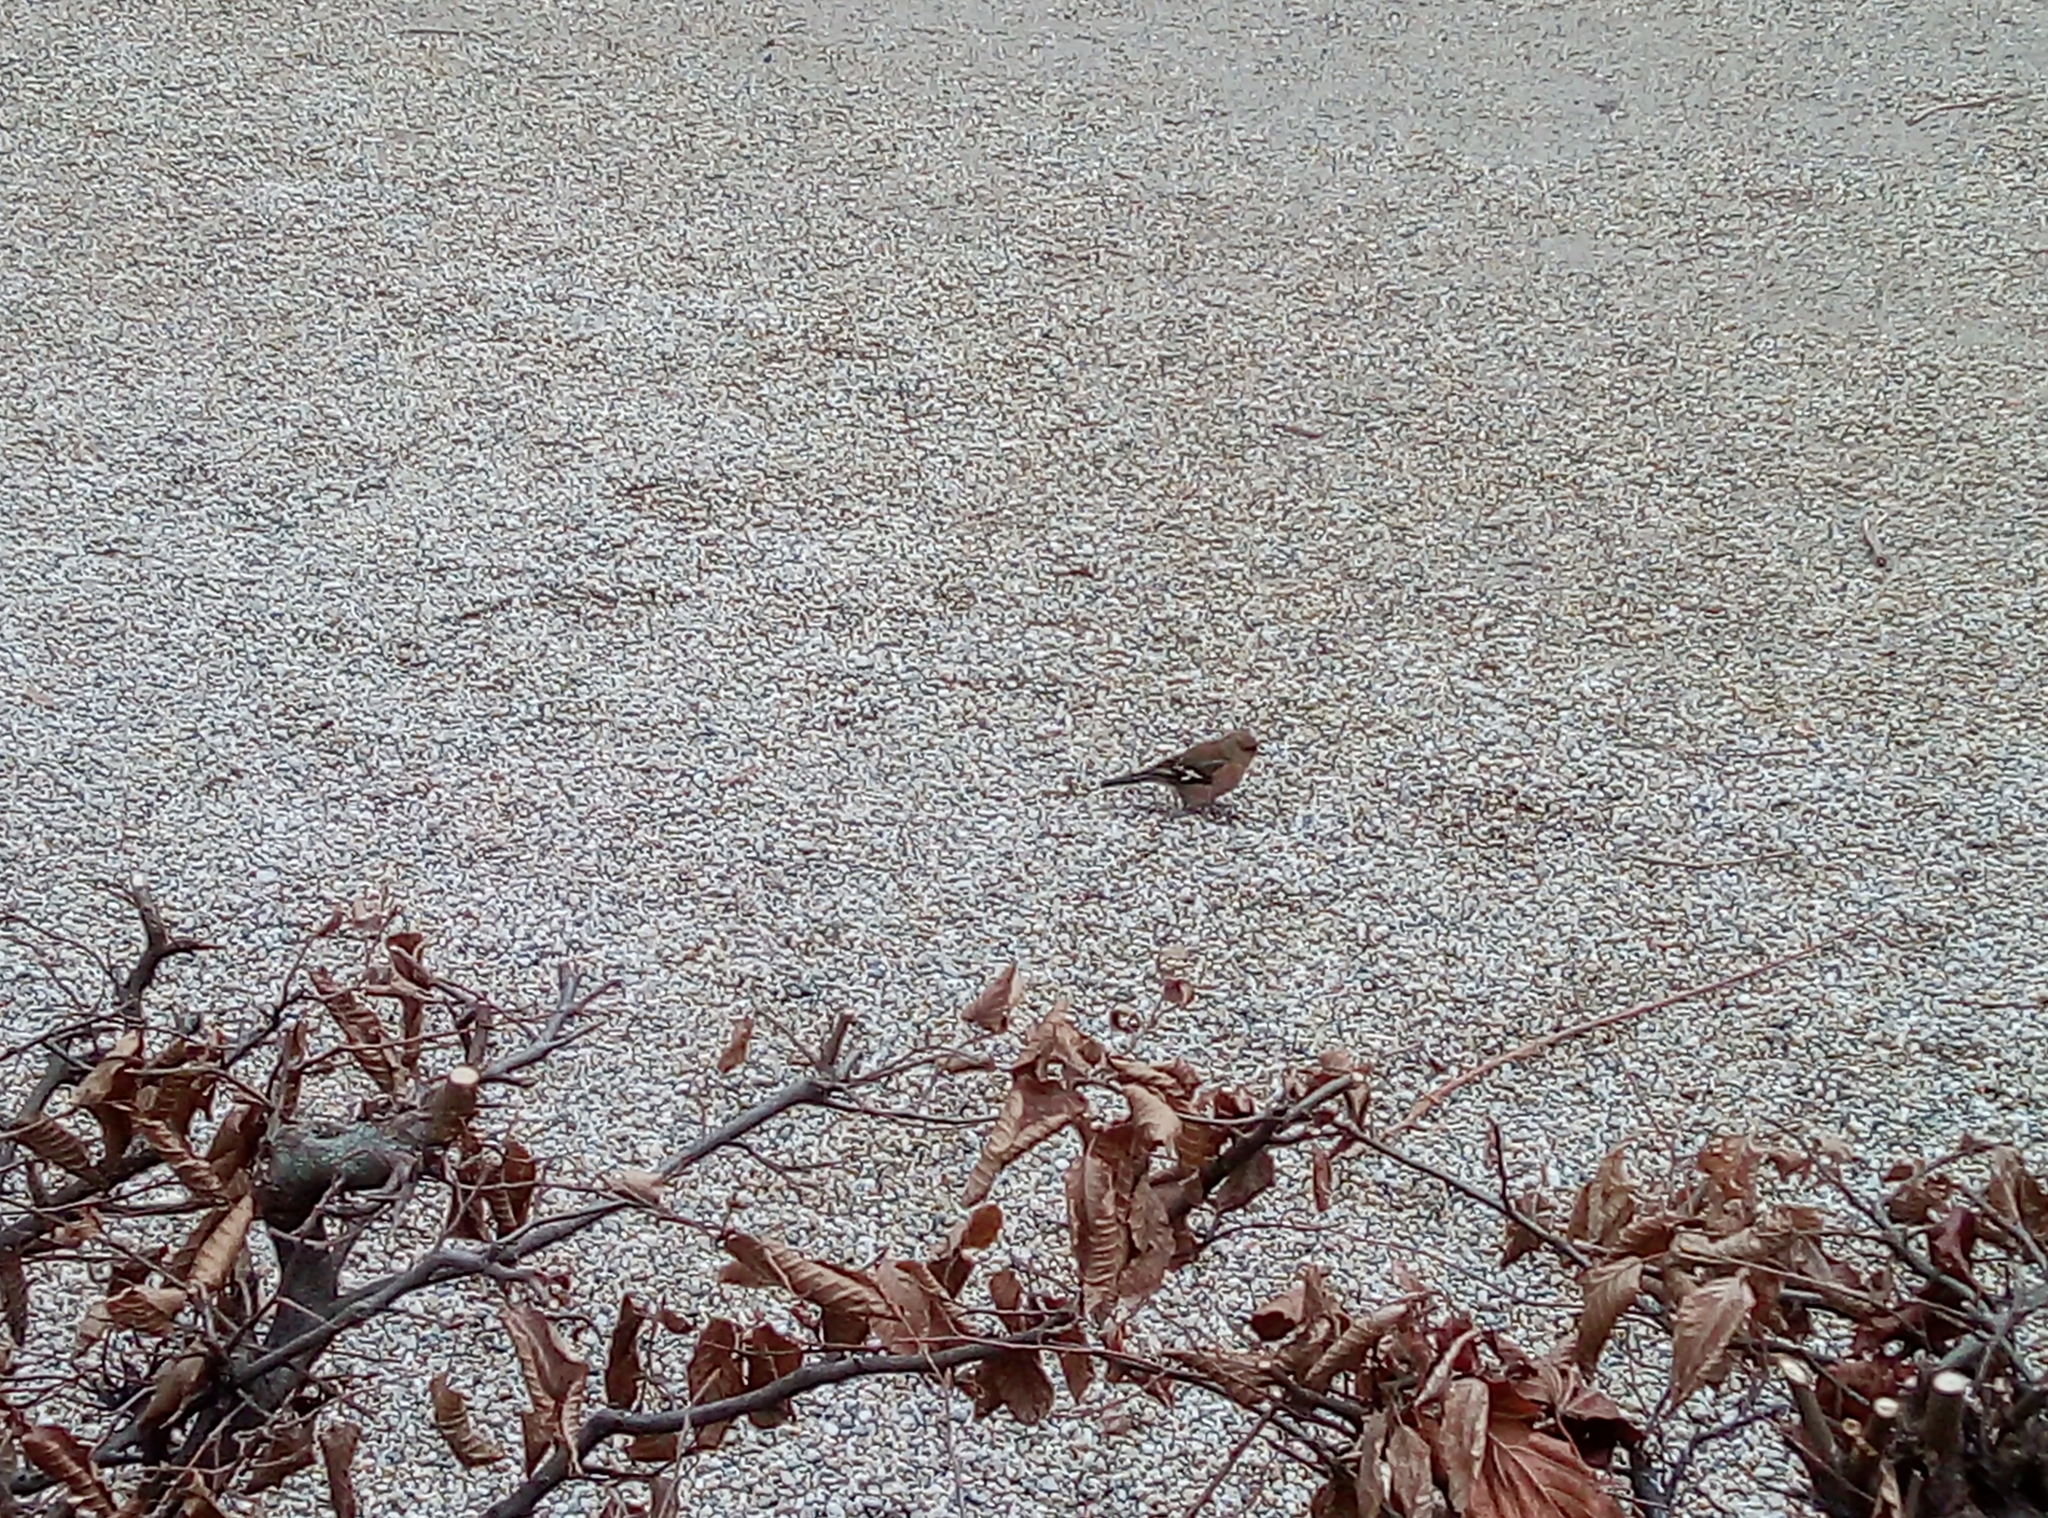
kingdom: Animalia
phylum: Chordata
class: Aves
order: Passeriformes
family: Fringillidae
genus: Fringilla
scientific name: Fringilla coelebs
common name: Common chaffinch
